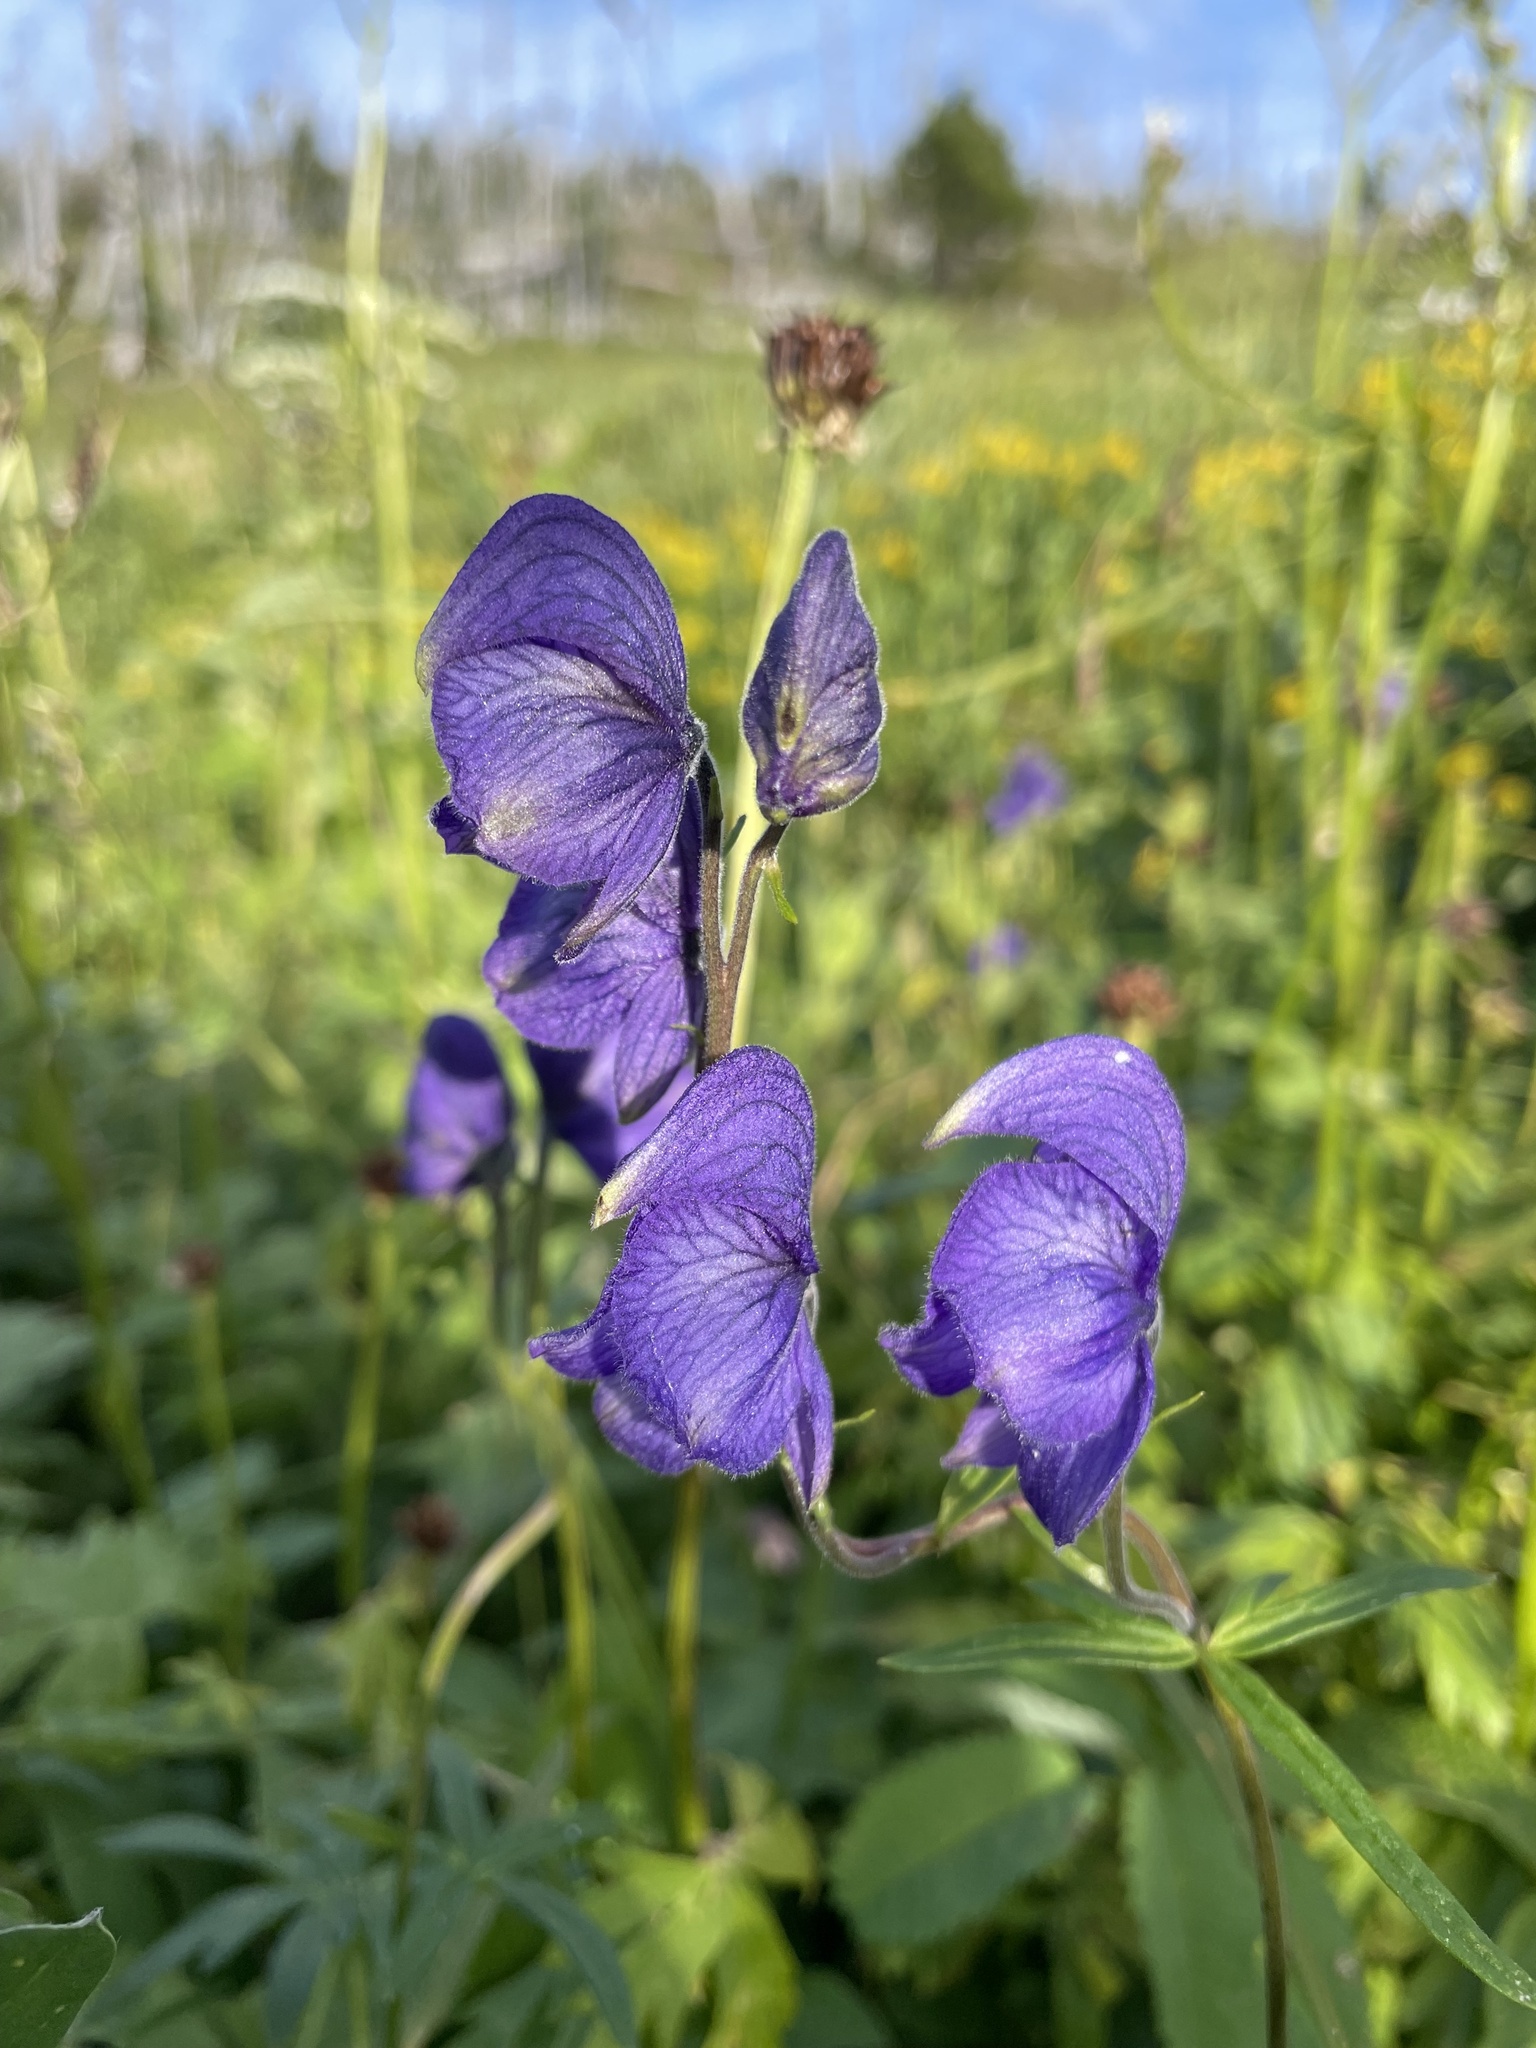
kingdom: Plantae
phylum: Tracheophyta
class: Magnoliopsida
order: Ranunculales
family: Ranunculaceae
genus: Aconitum
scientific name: Aconitum delphiniifolium
